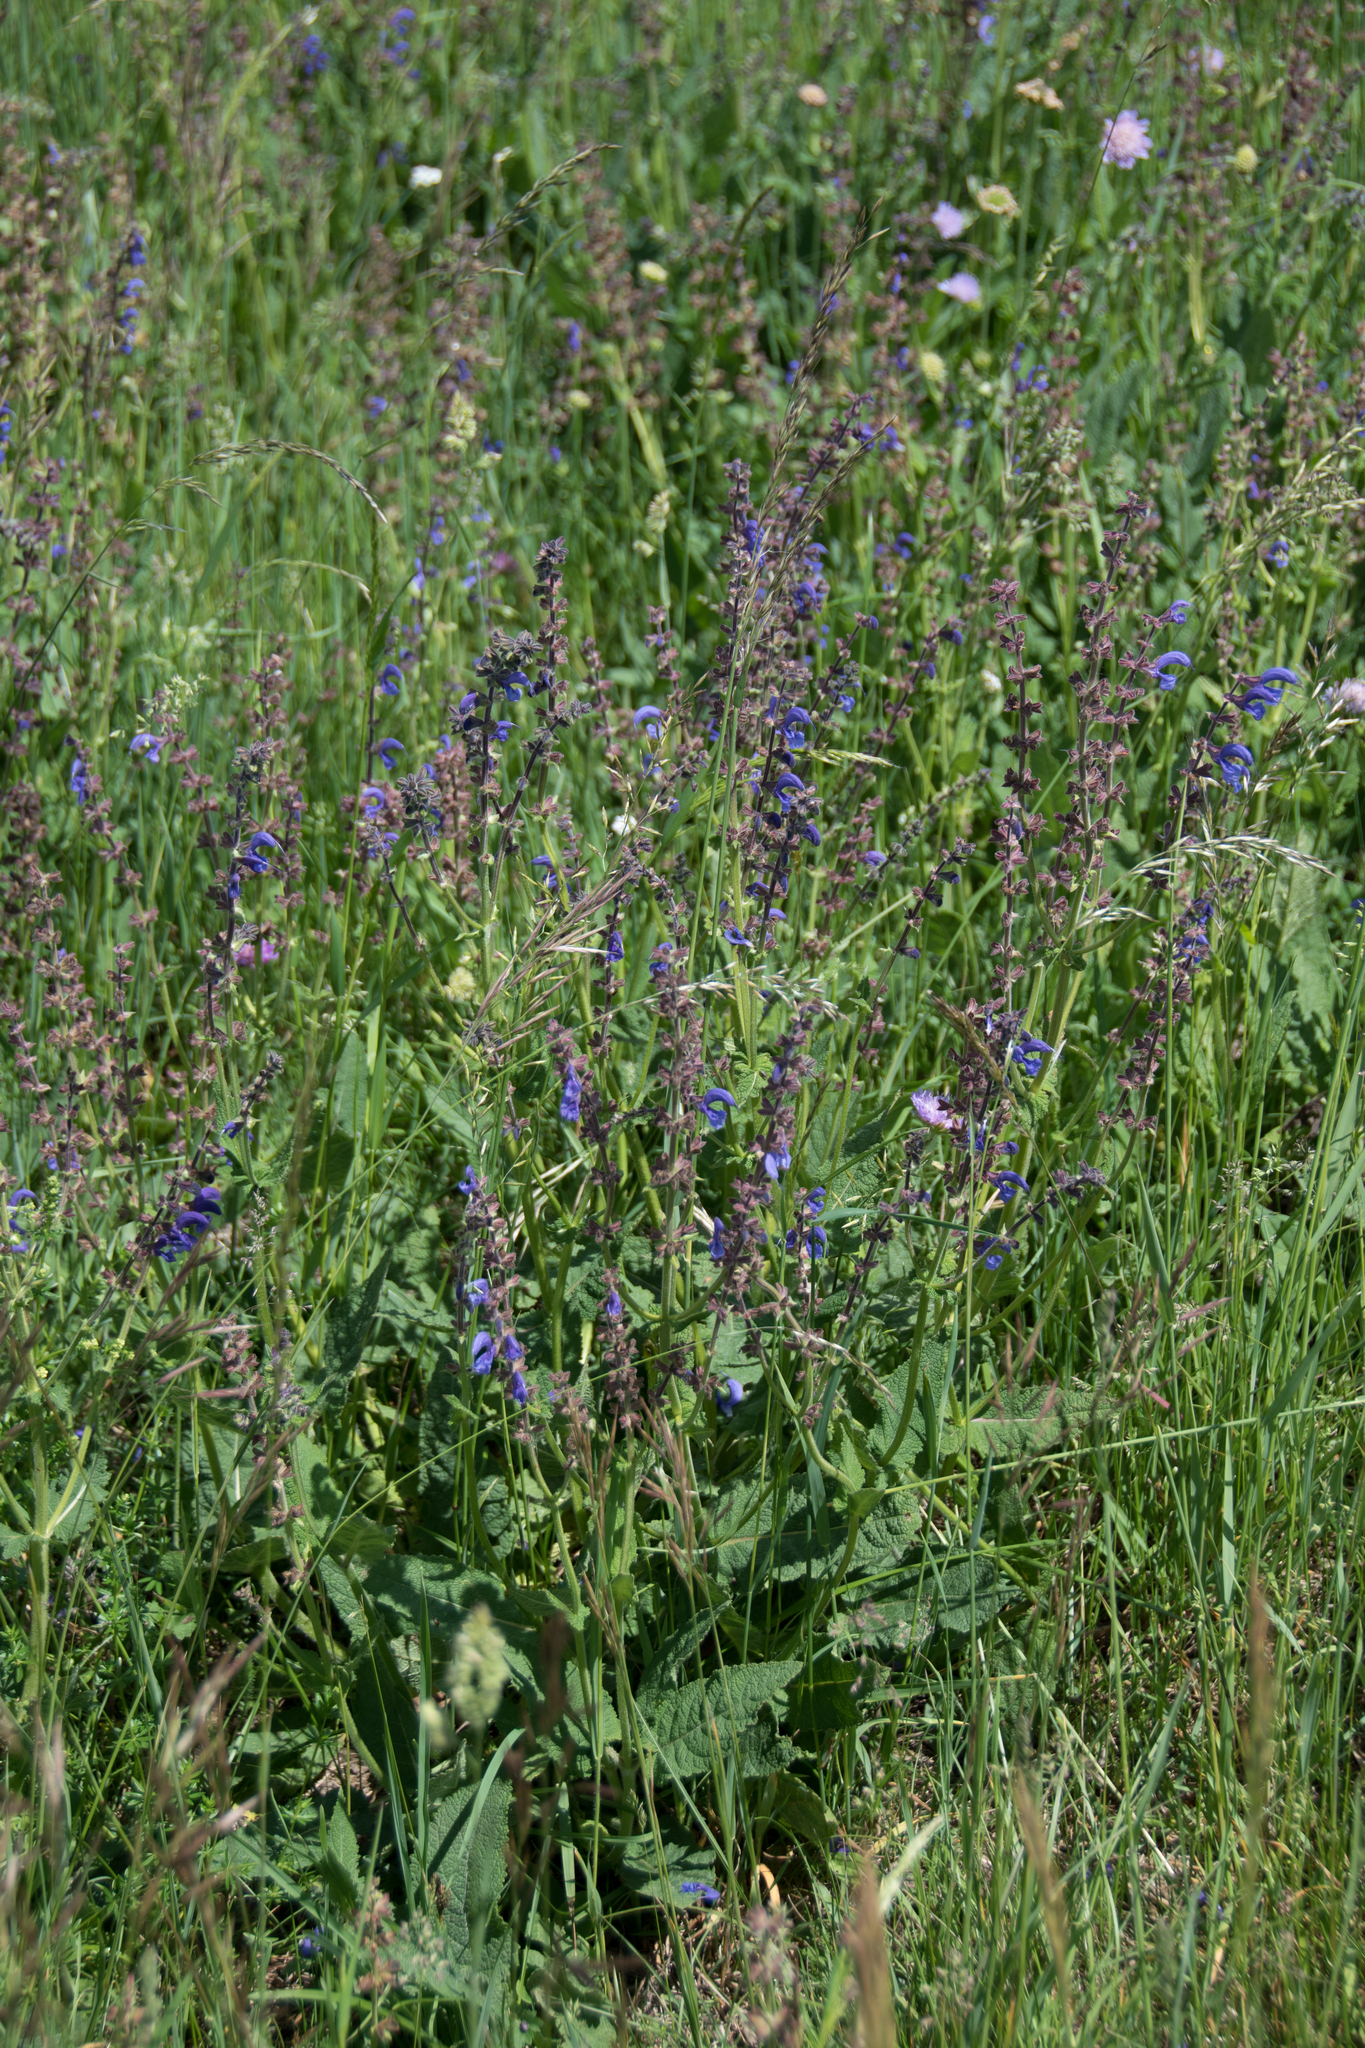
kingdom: Plantae
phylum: Tracheophyta
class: Magnoliopsida
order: Lamiales
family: Lamiaceae
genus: Salvia
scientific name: Salvia pratensis
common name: Meadow sage
